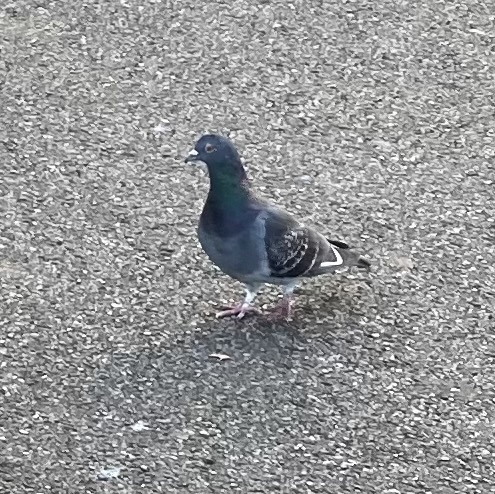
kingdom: Animalia
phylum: Chordata
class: Aves
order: Columbiformes
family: Columbidae
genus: Columba
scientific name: Columba livia
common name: Rock pigeon
